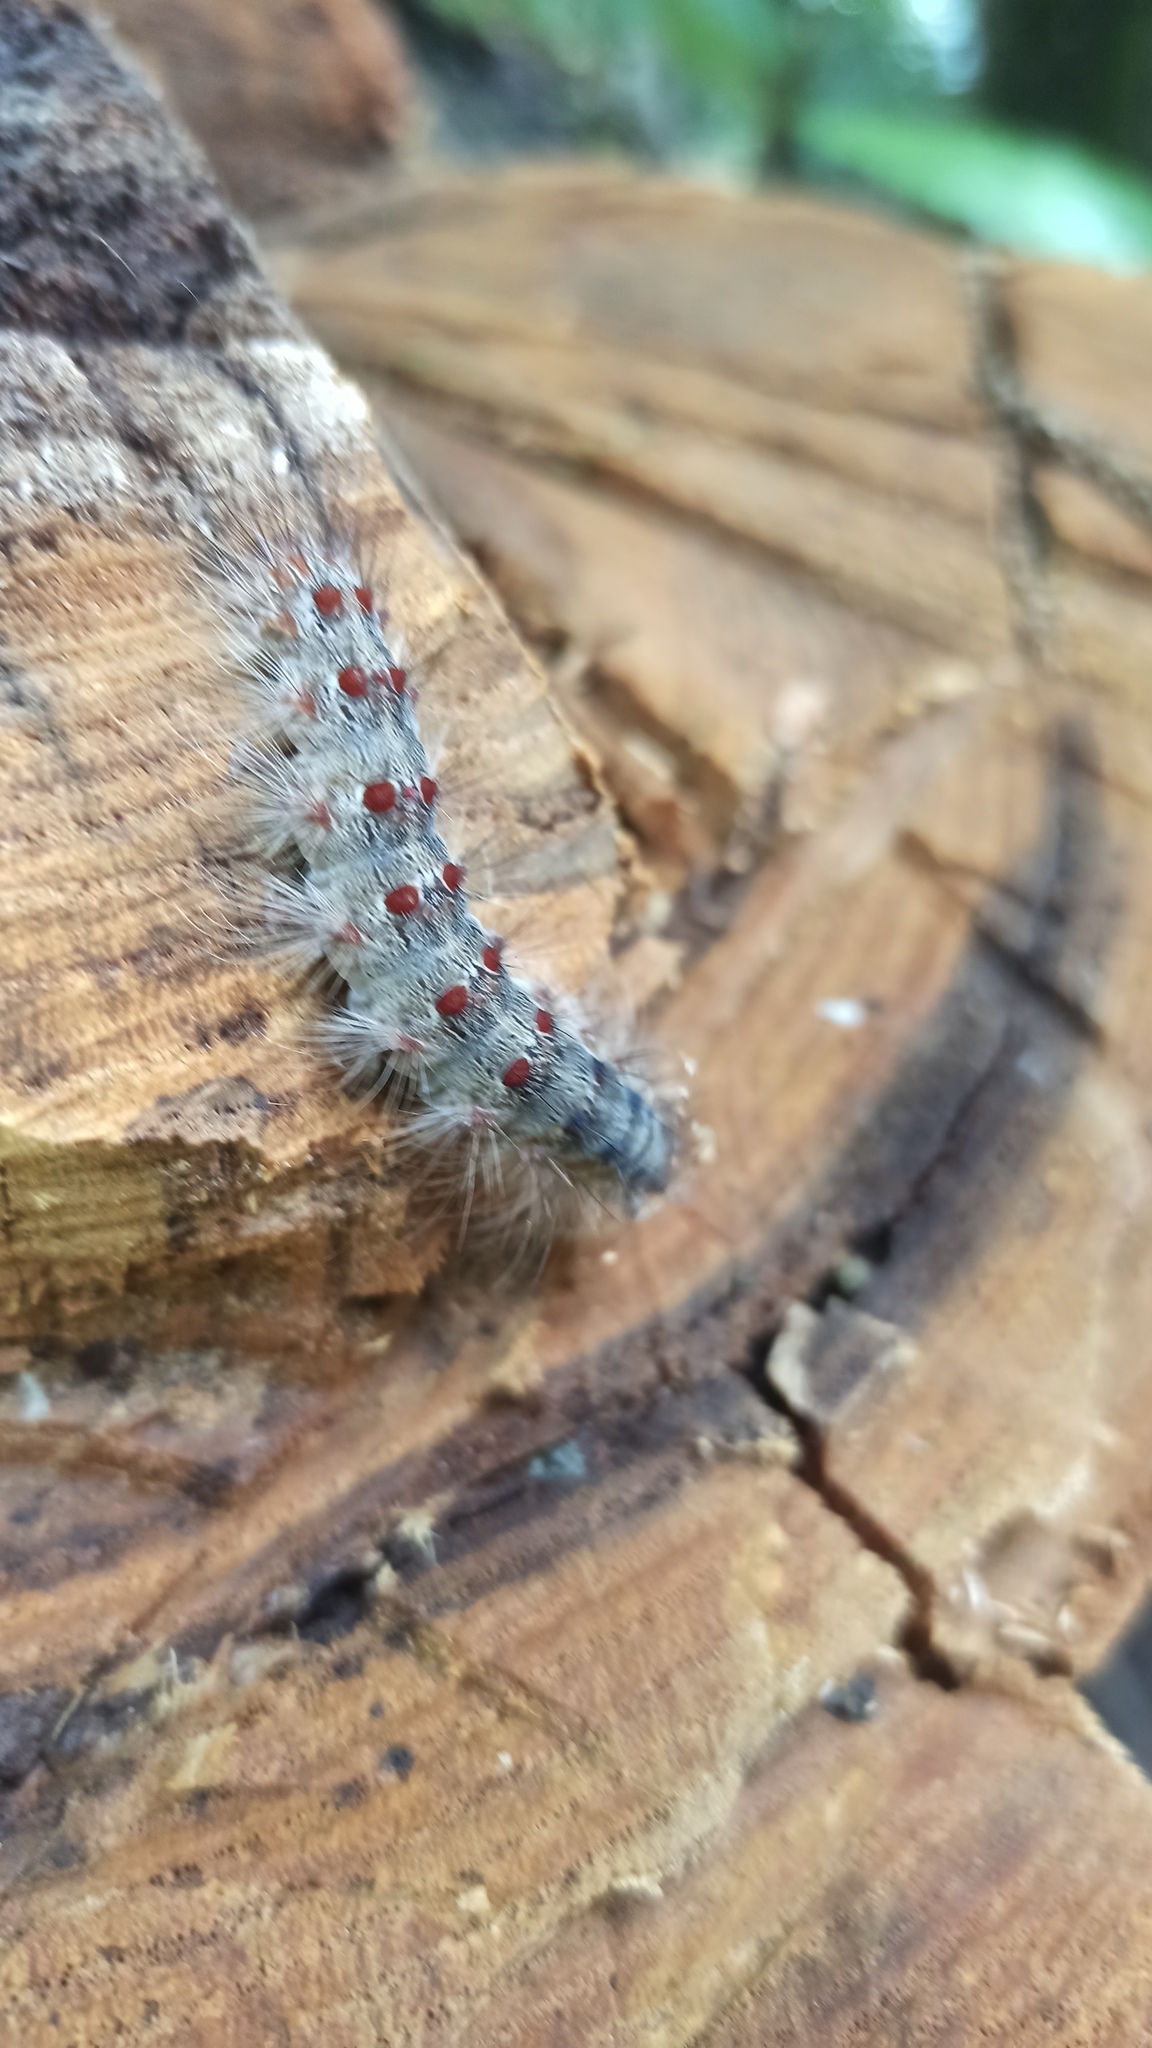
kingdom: Animalia
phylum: Arthropoda
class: Insecta
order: Lepidoptera
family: Erebidae
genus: Lymantria
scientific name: Lymantria dispar
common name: Gypsy moth
